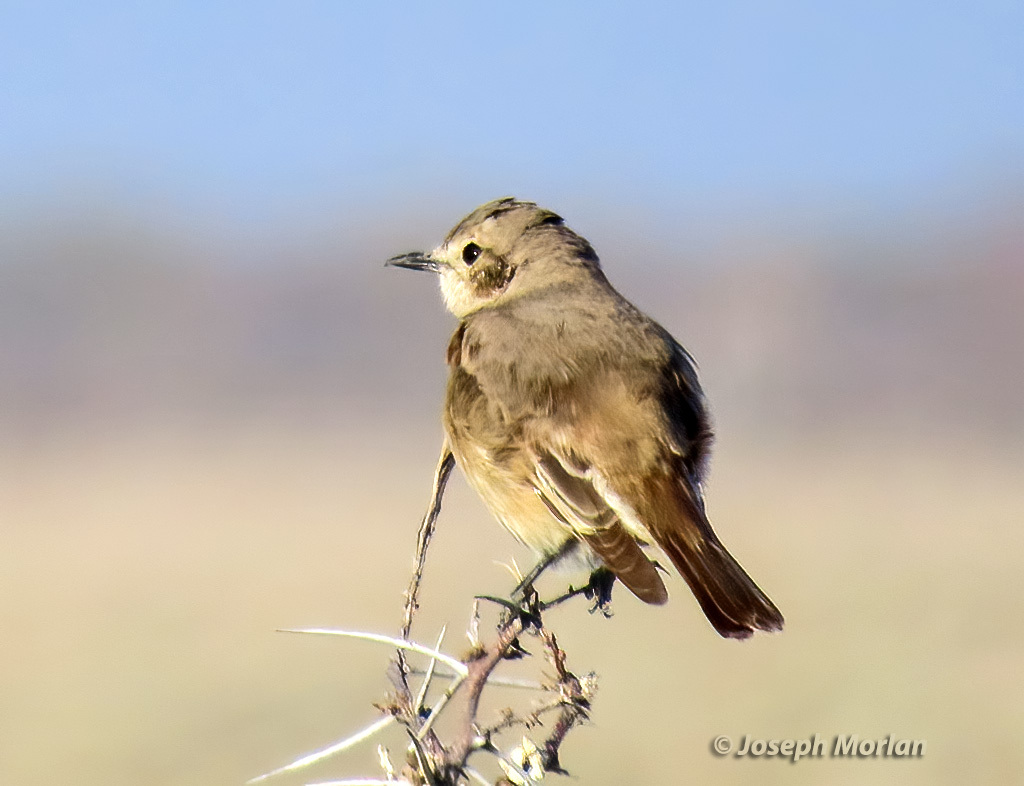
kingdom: Animalia
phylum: Chordata
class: Aves
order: Passeriformes
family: Muscicapidae
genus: Bradornis
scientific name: Bradornis infuscatus
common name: Chat flycatcher
